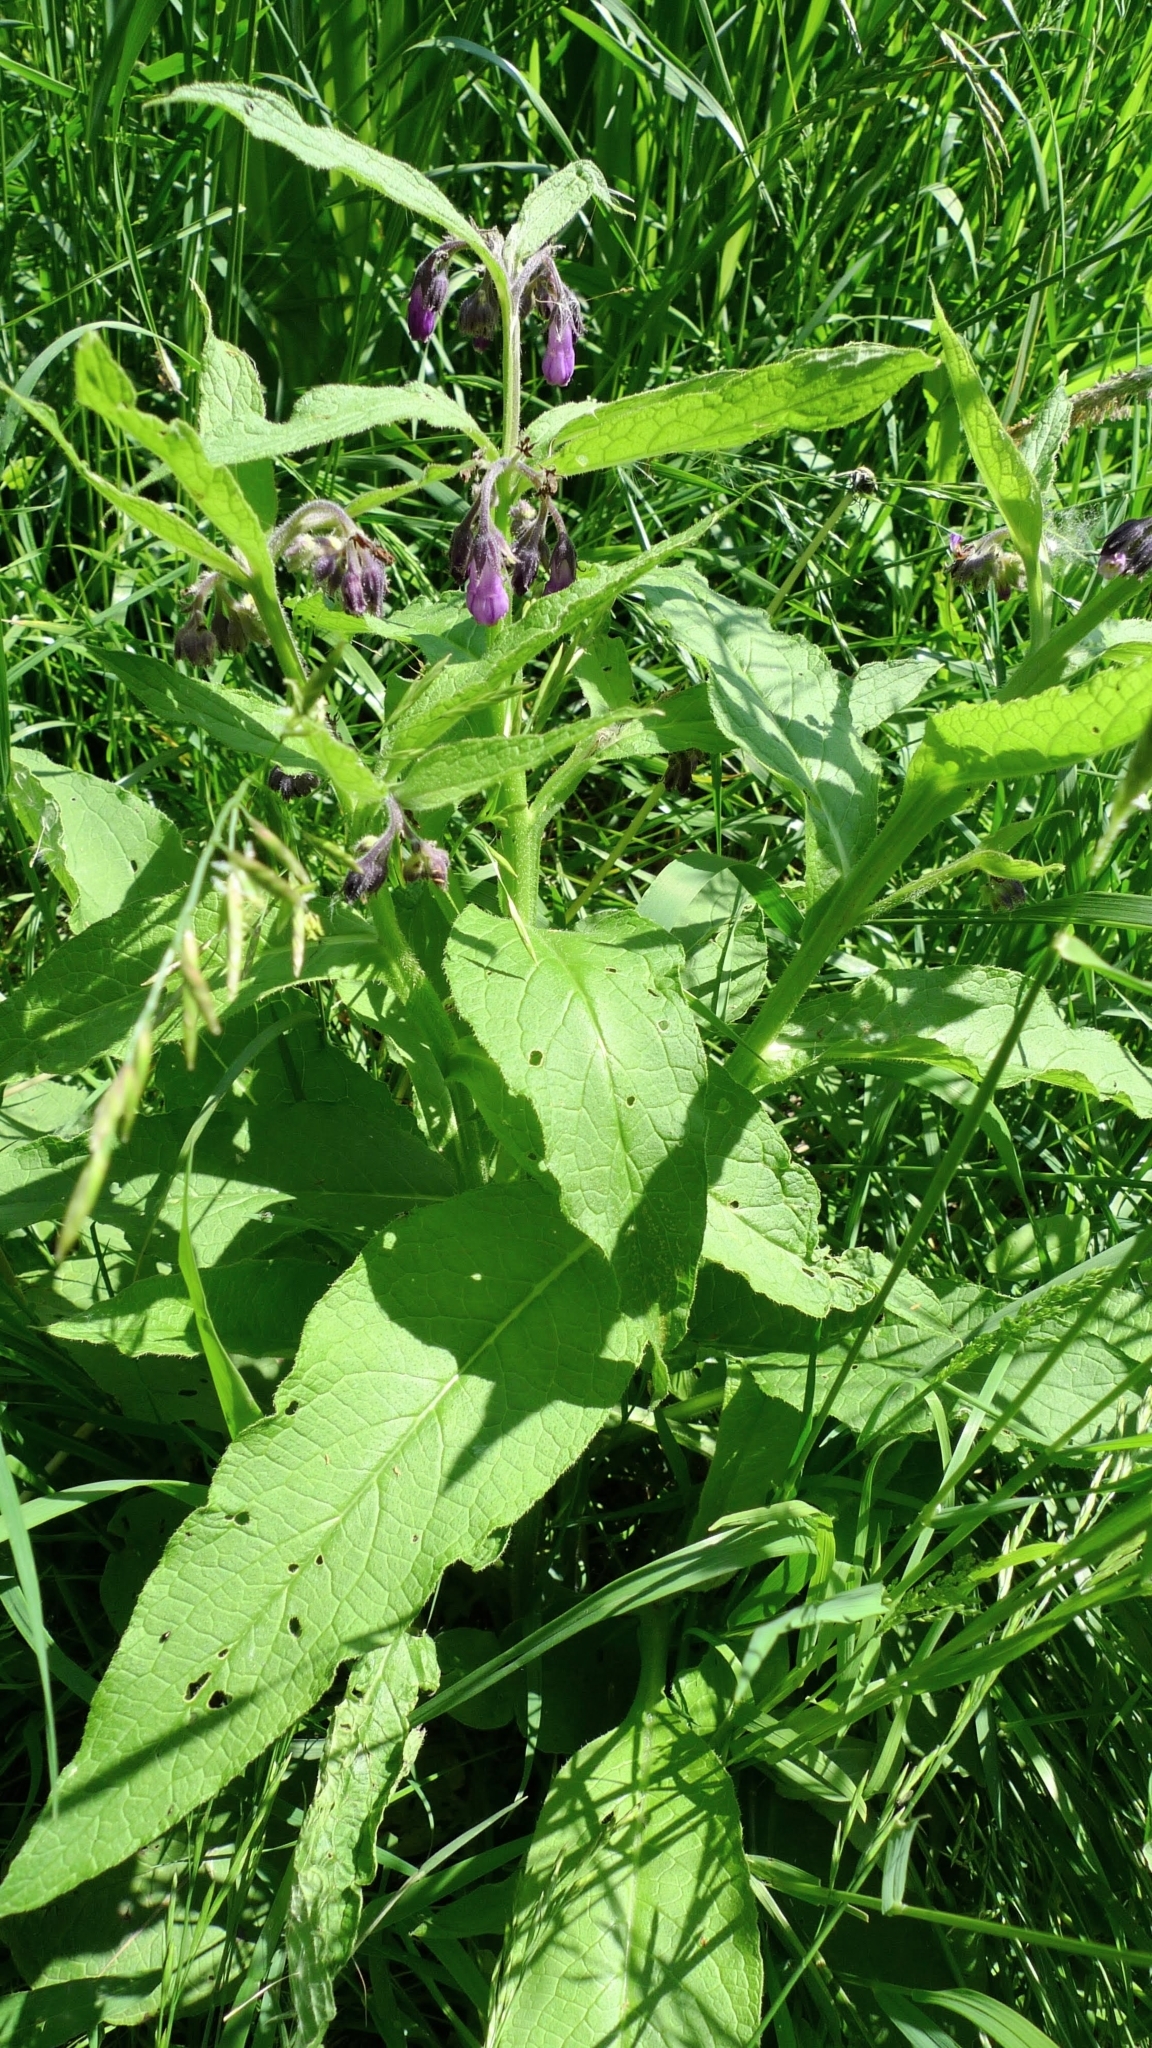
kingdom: Plantae
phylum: Tracheophyta
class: Magnoliopsida
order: Boraginales
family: Boraginaceae
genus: Symphytum
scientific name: Symphytum officinale
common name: Common comfrey
